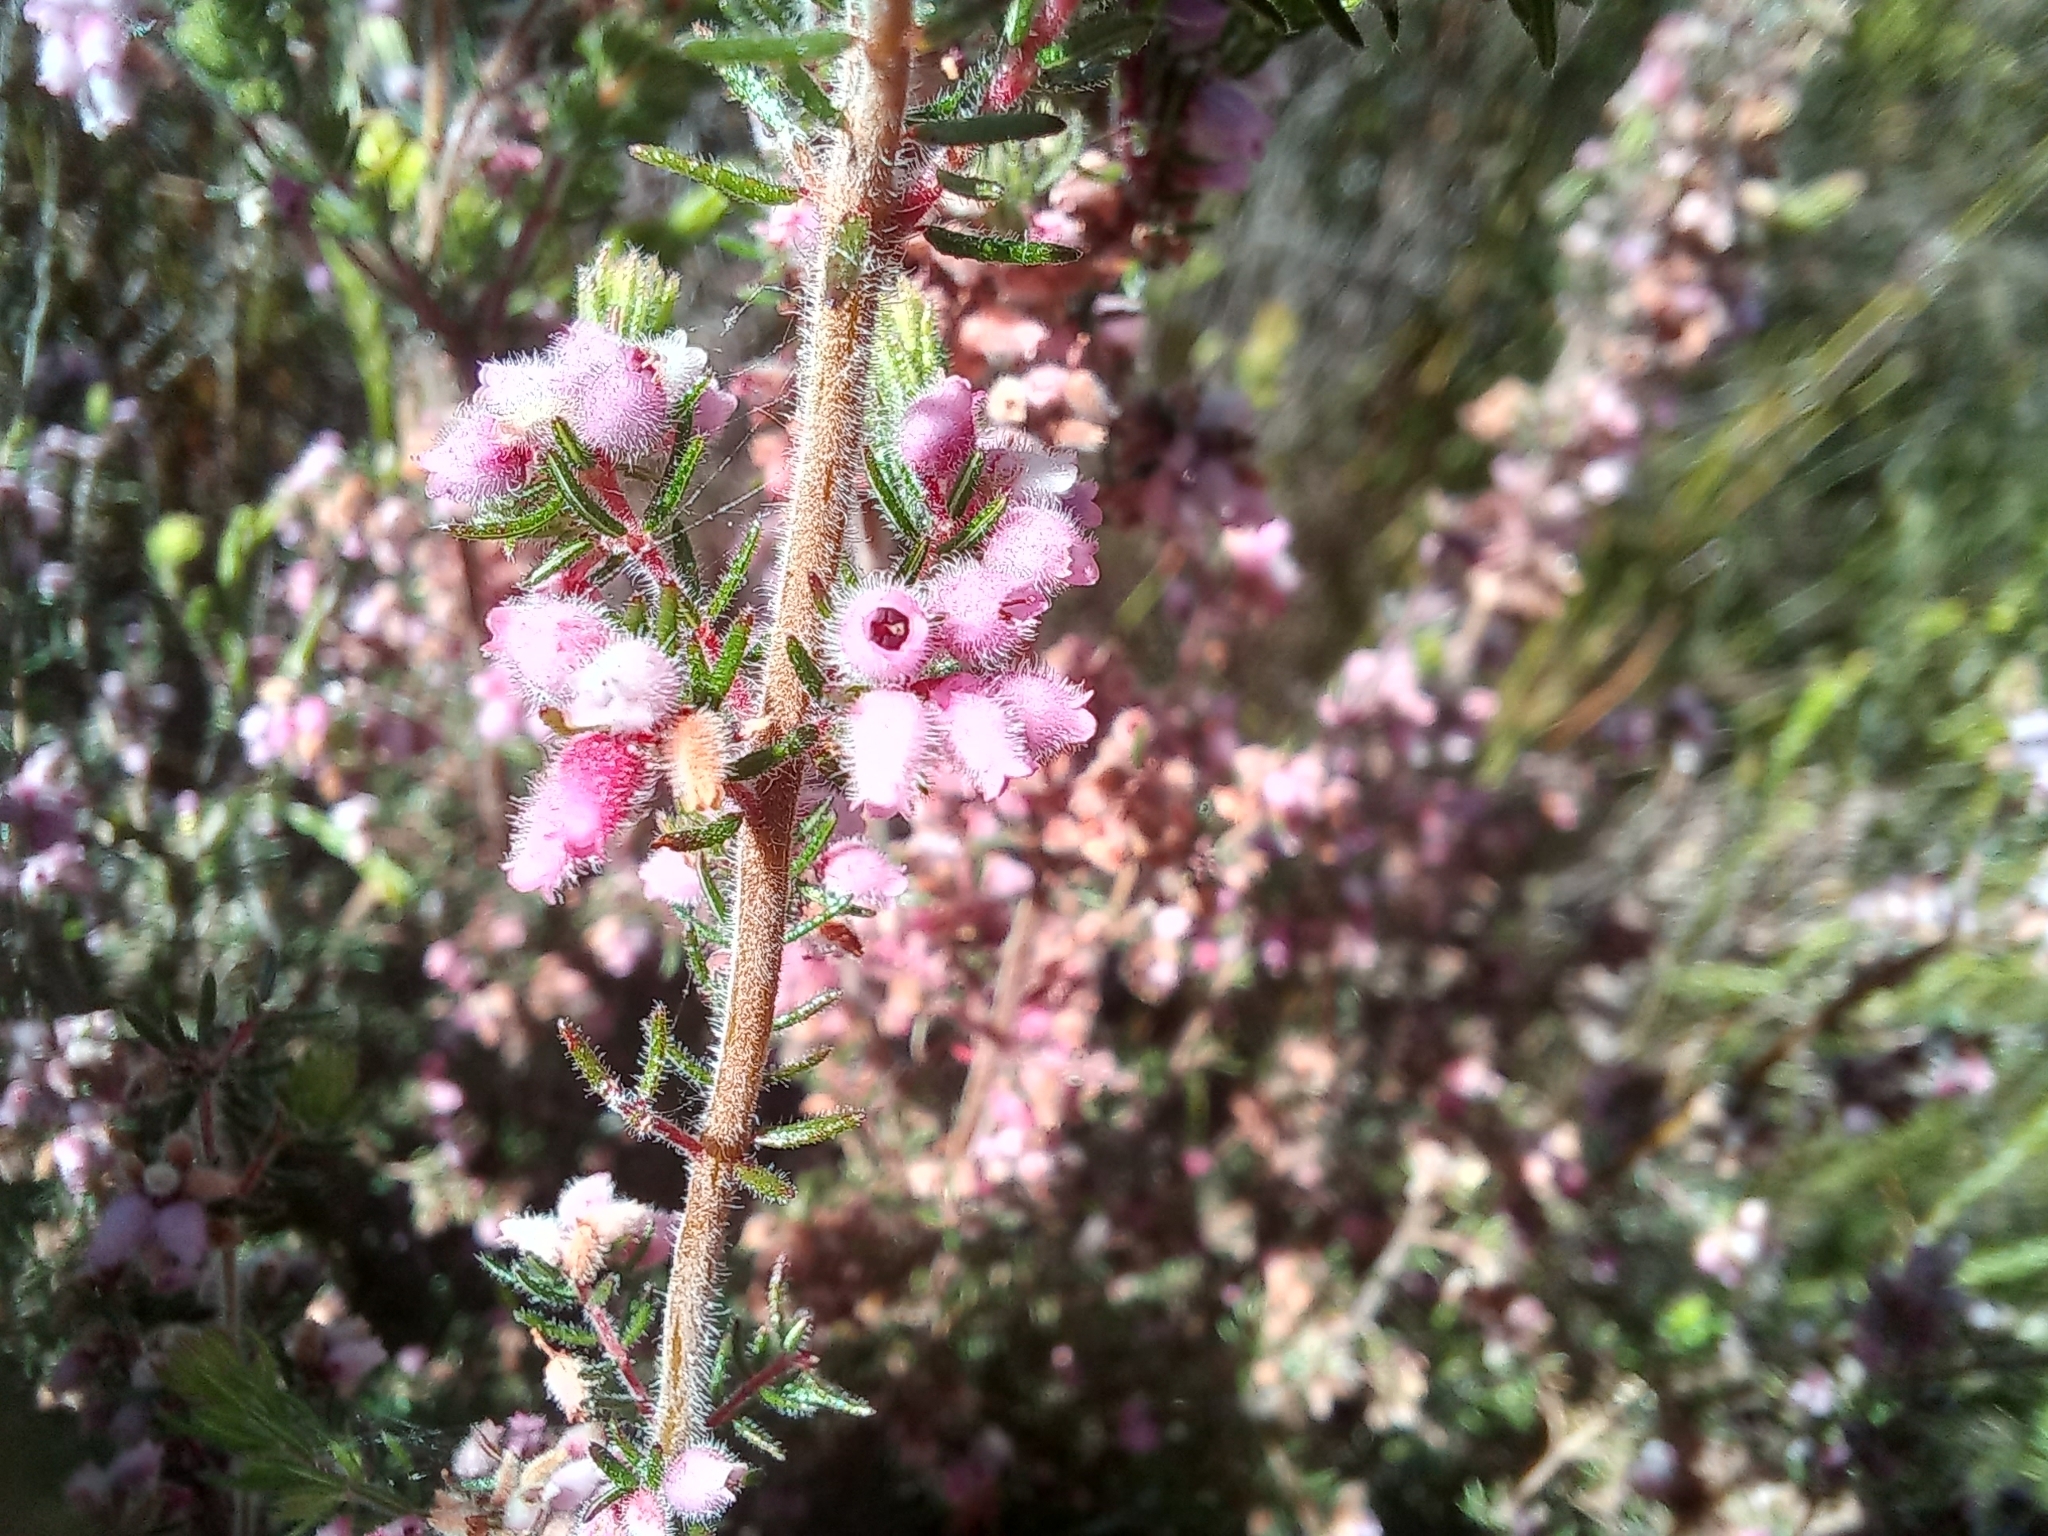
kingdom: Plantae
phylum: Tracheophyta
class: Magnoliopsida
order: Ericales
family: Ericaceae
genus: Erica
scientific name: Erica parviflora
